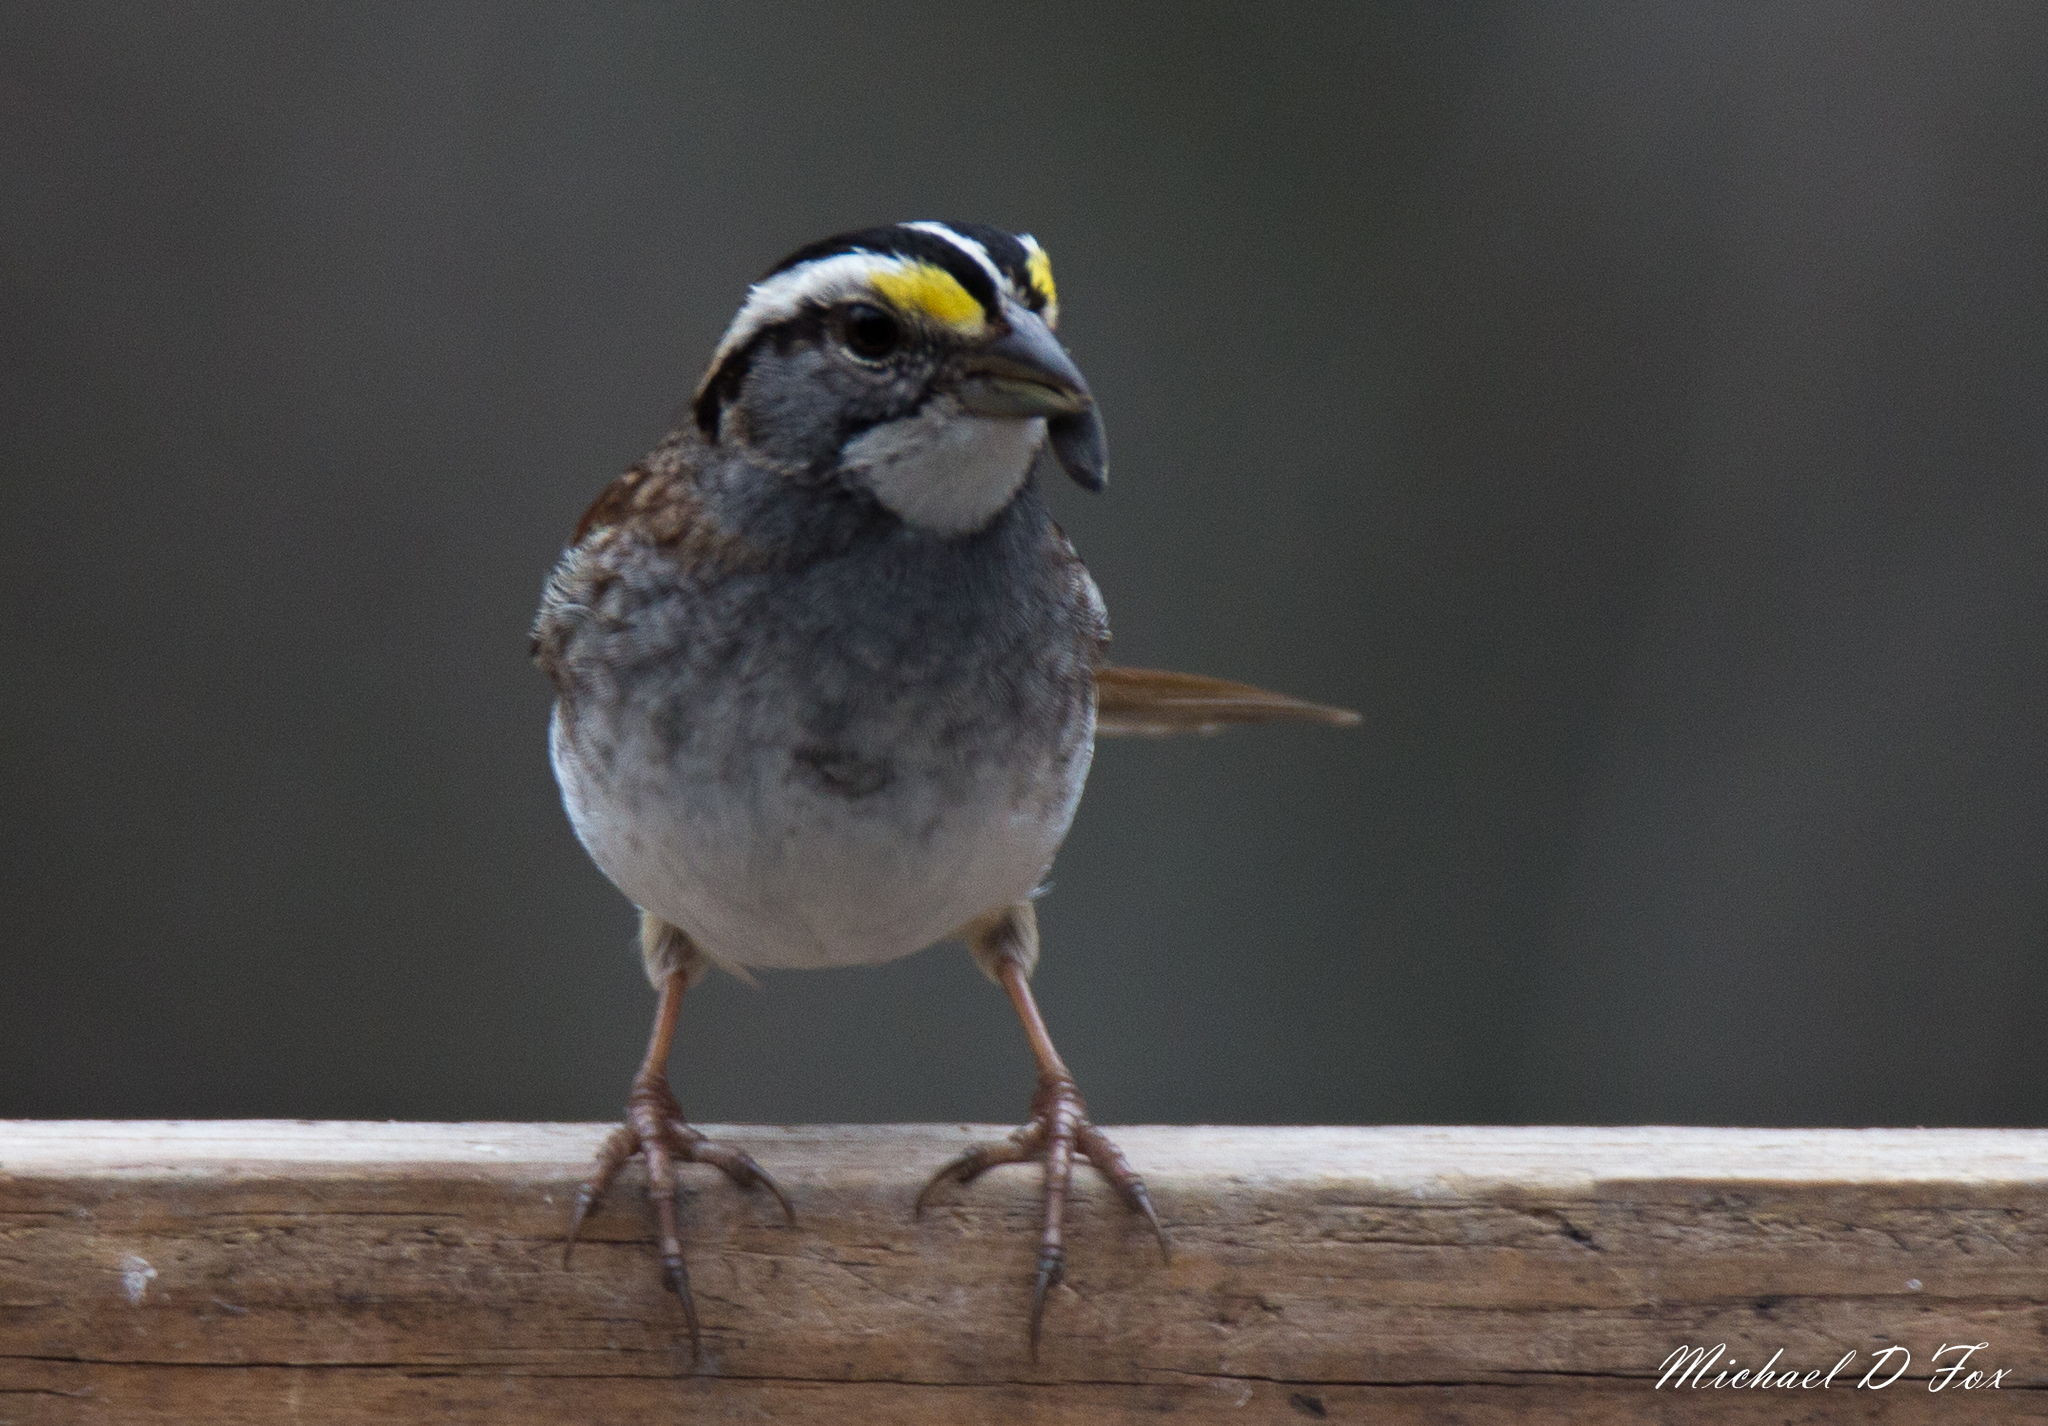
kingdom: Animalia
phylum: Chordata
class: Aves
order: Passeriformes
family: Passerellidae
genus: Zonotrichia
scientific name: Zonotrichia albicollis
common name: White-throated sparrow
